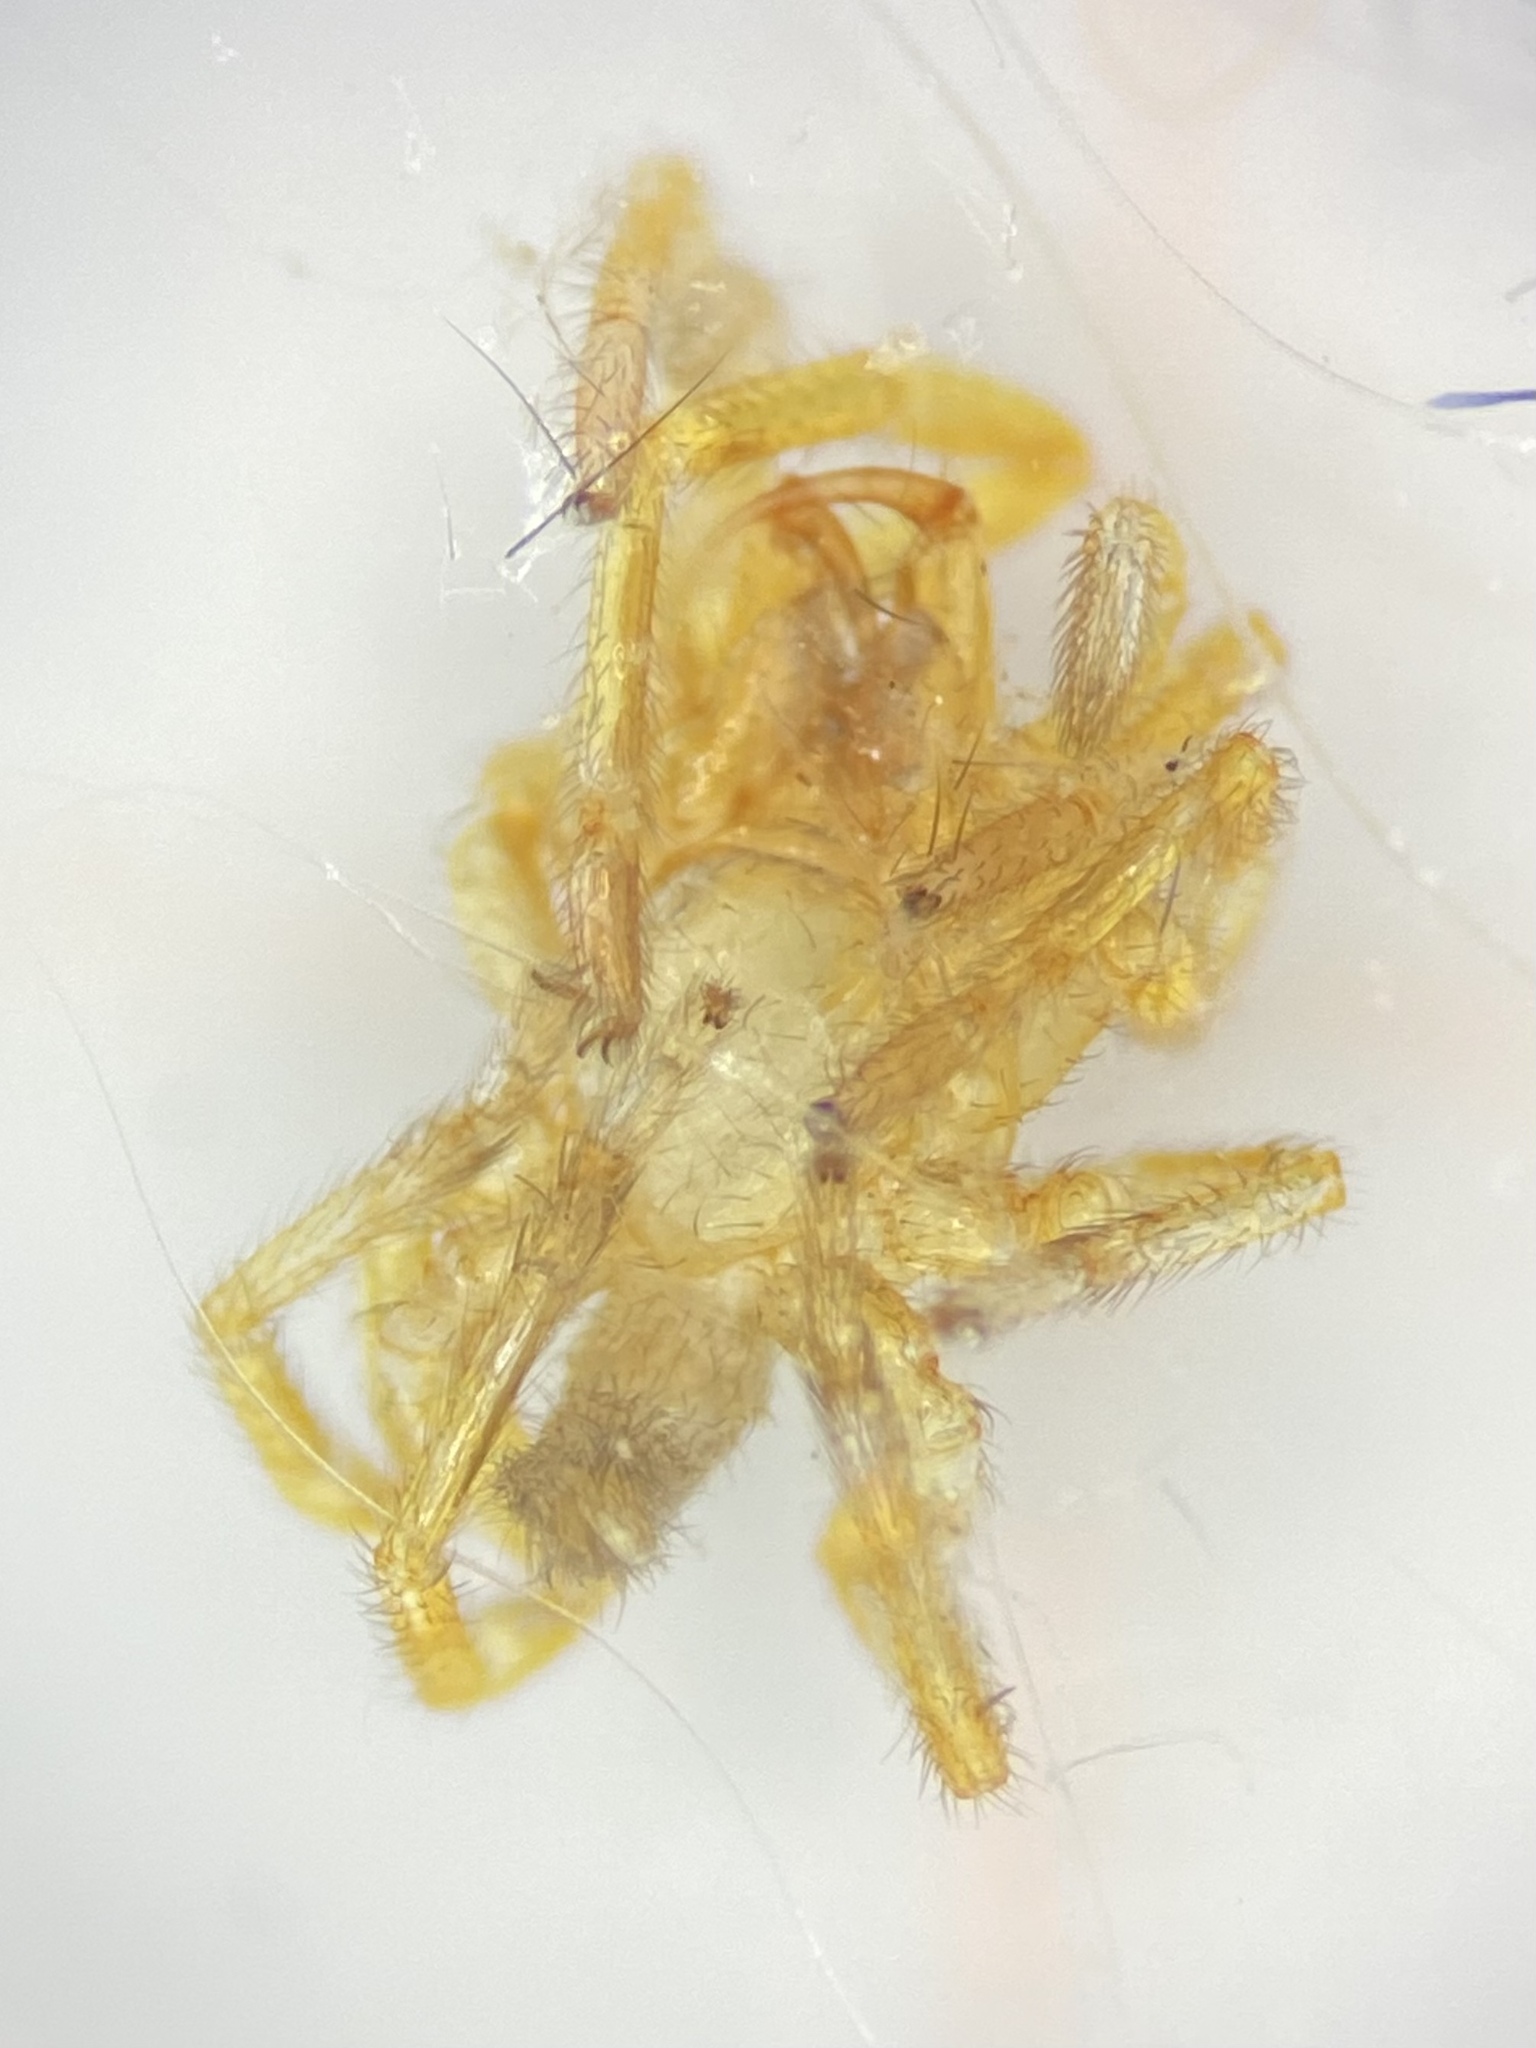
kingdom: Animalia
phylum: Arthropoda
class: Arachnida
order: Araneae
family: Dysderidae
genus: Dysdera
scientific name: Dysdera crocata
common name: Woodlouse spider
